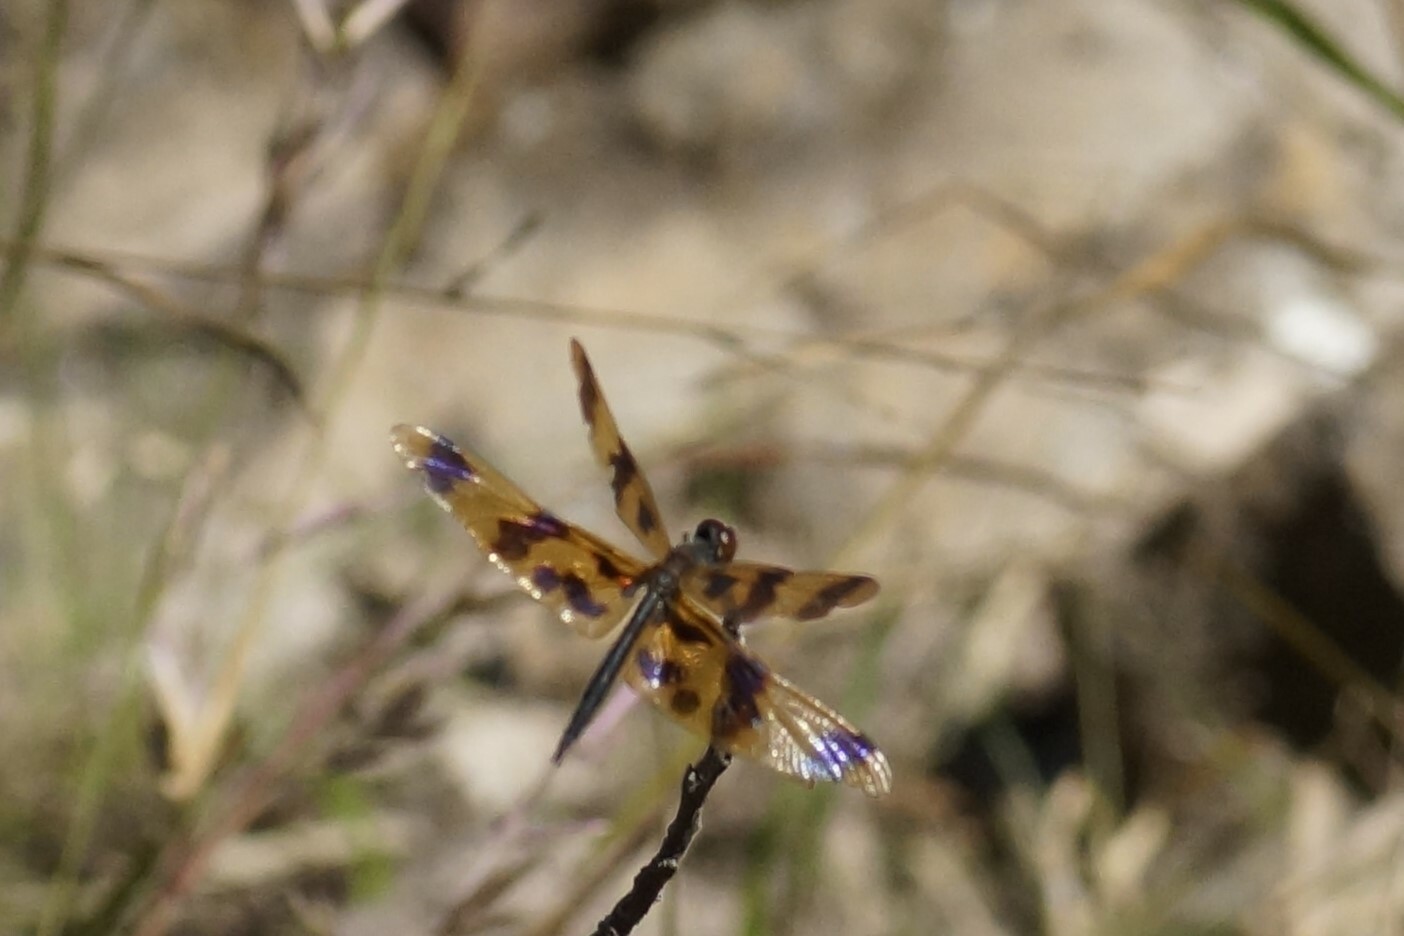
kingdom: Animalia
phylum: Arthropoda
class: Insecta
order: Odonata
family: Libellulidae
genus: Rhyothemis
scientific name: Rhyothemis graphiptera
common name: Graphic flutterer
